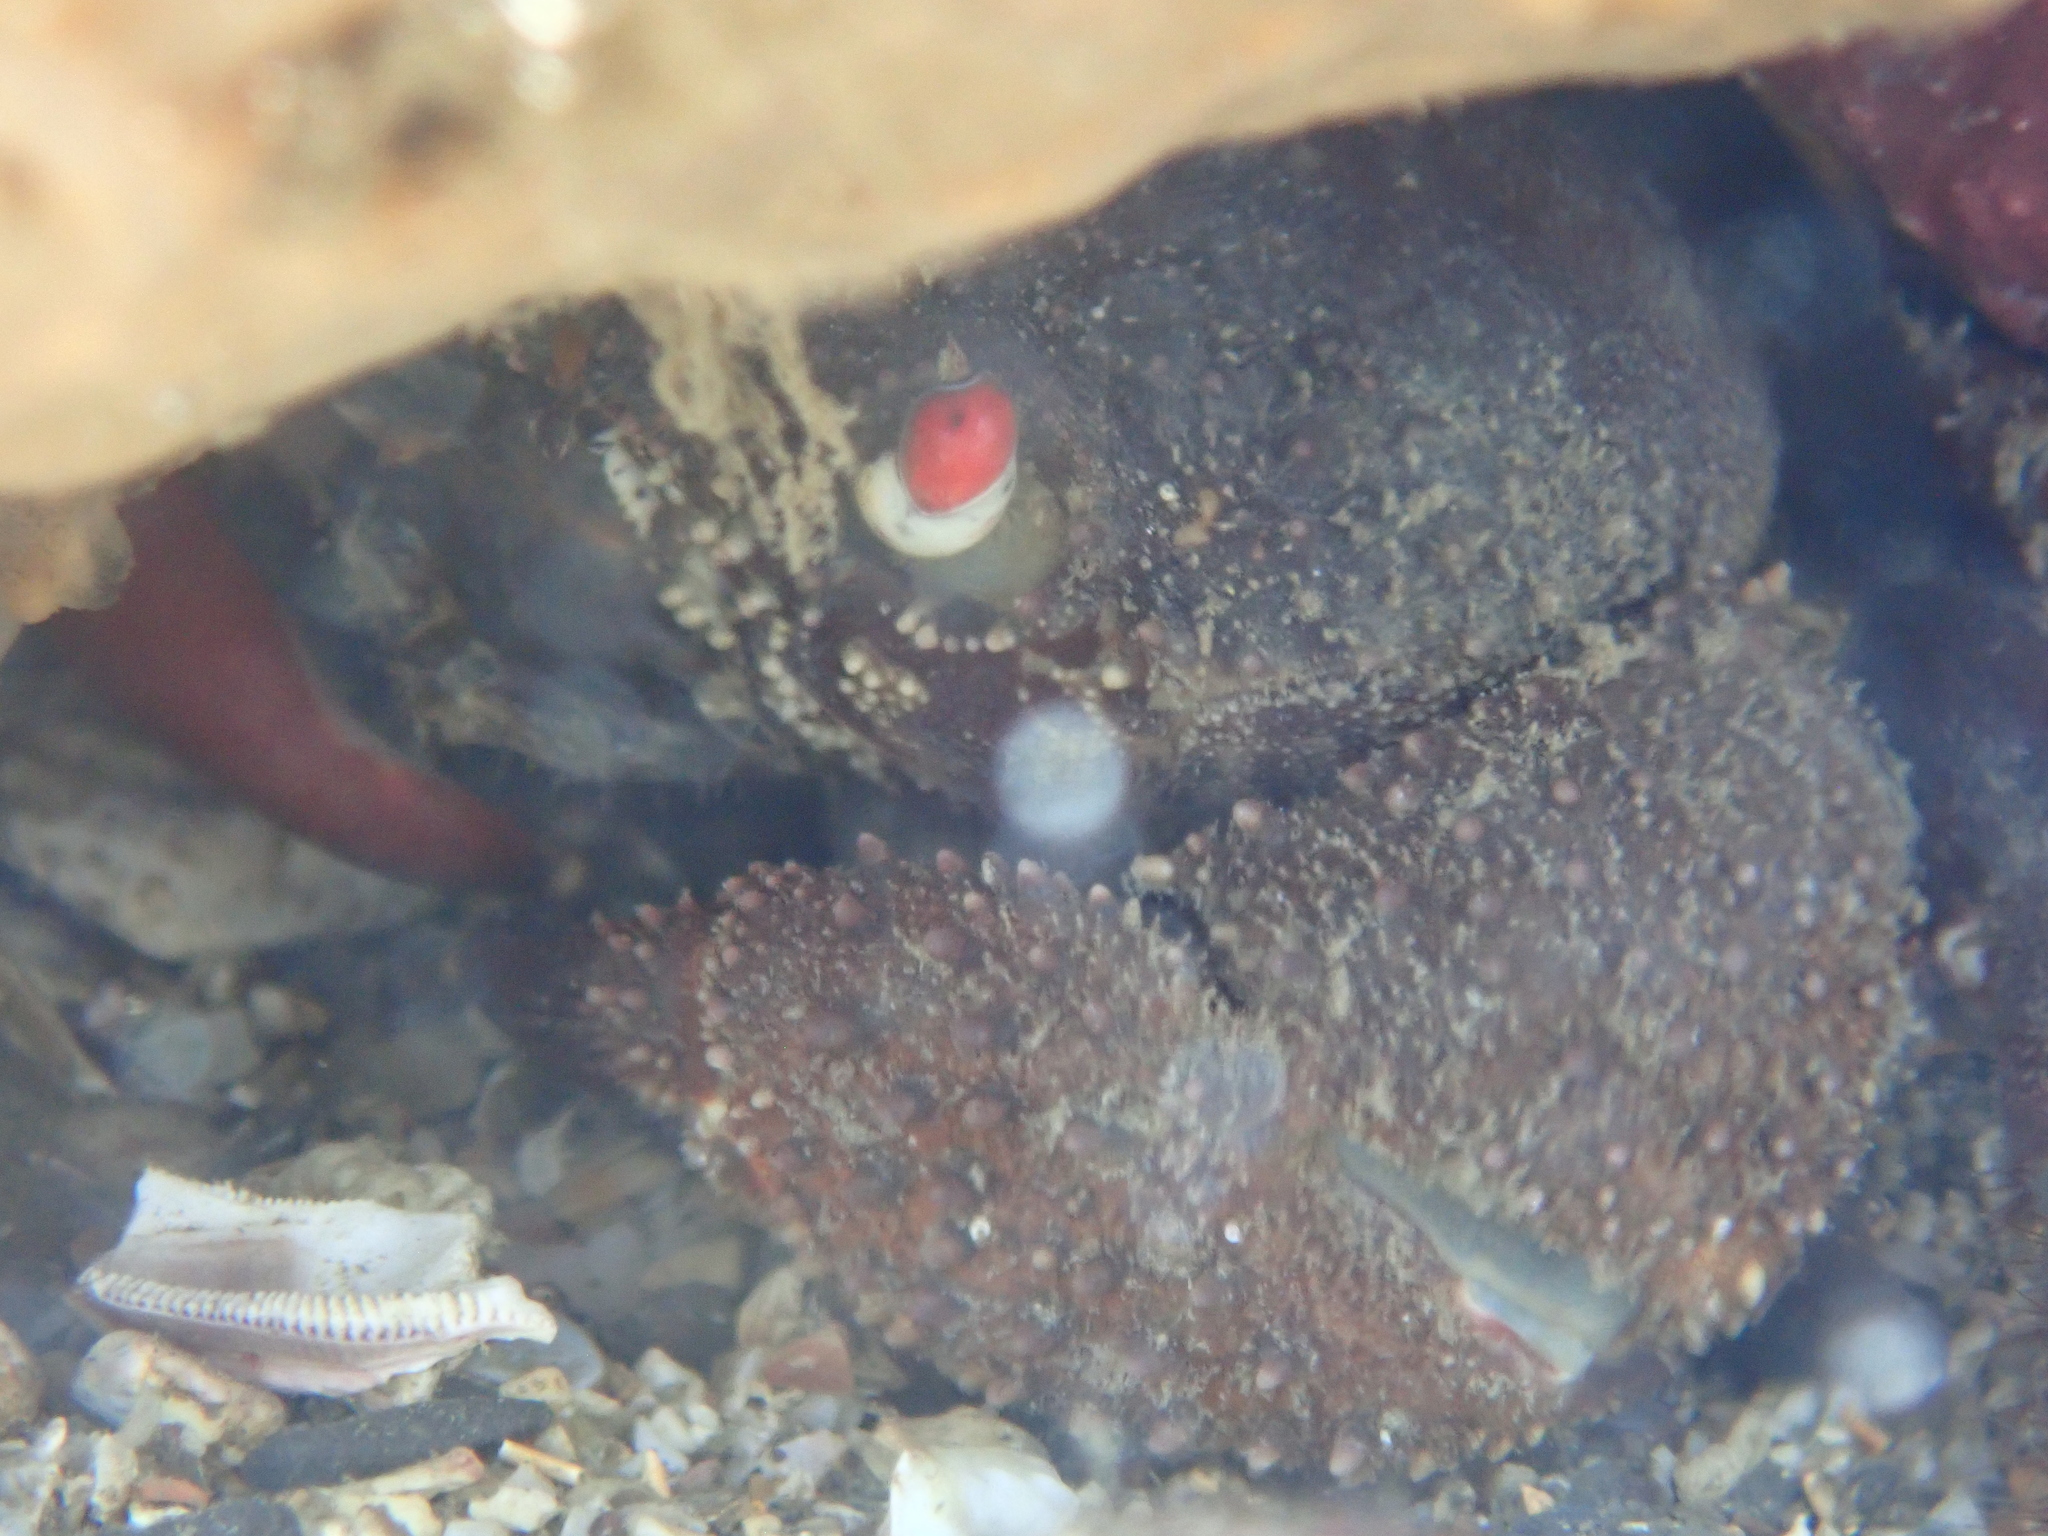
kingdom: Animalia
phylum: Arthropoda
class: Malacostraca
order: Decapoda
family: Eriphiidae
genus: Eriphia
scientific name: Eriphia ferox
